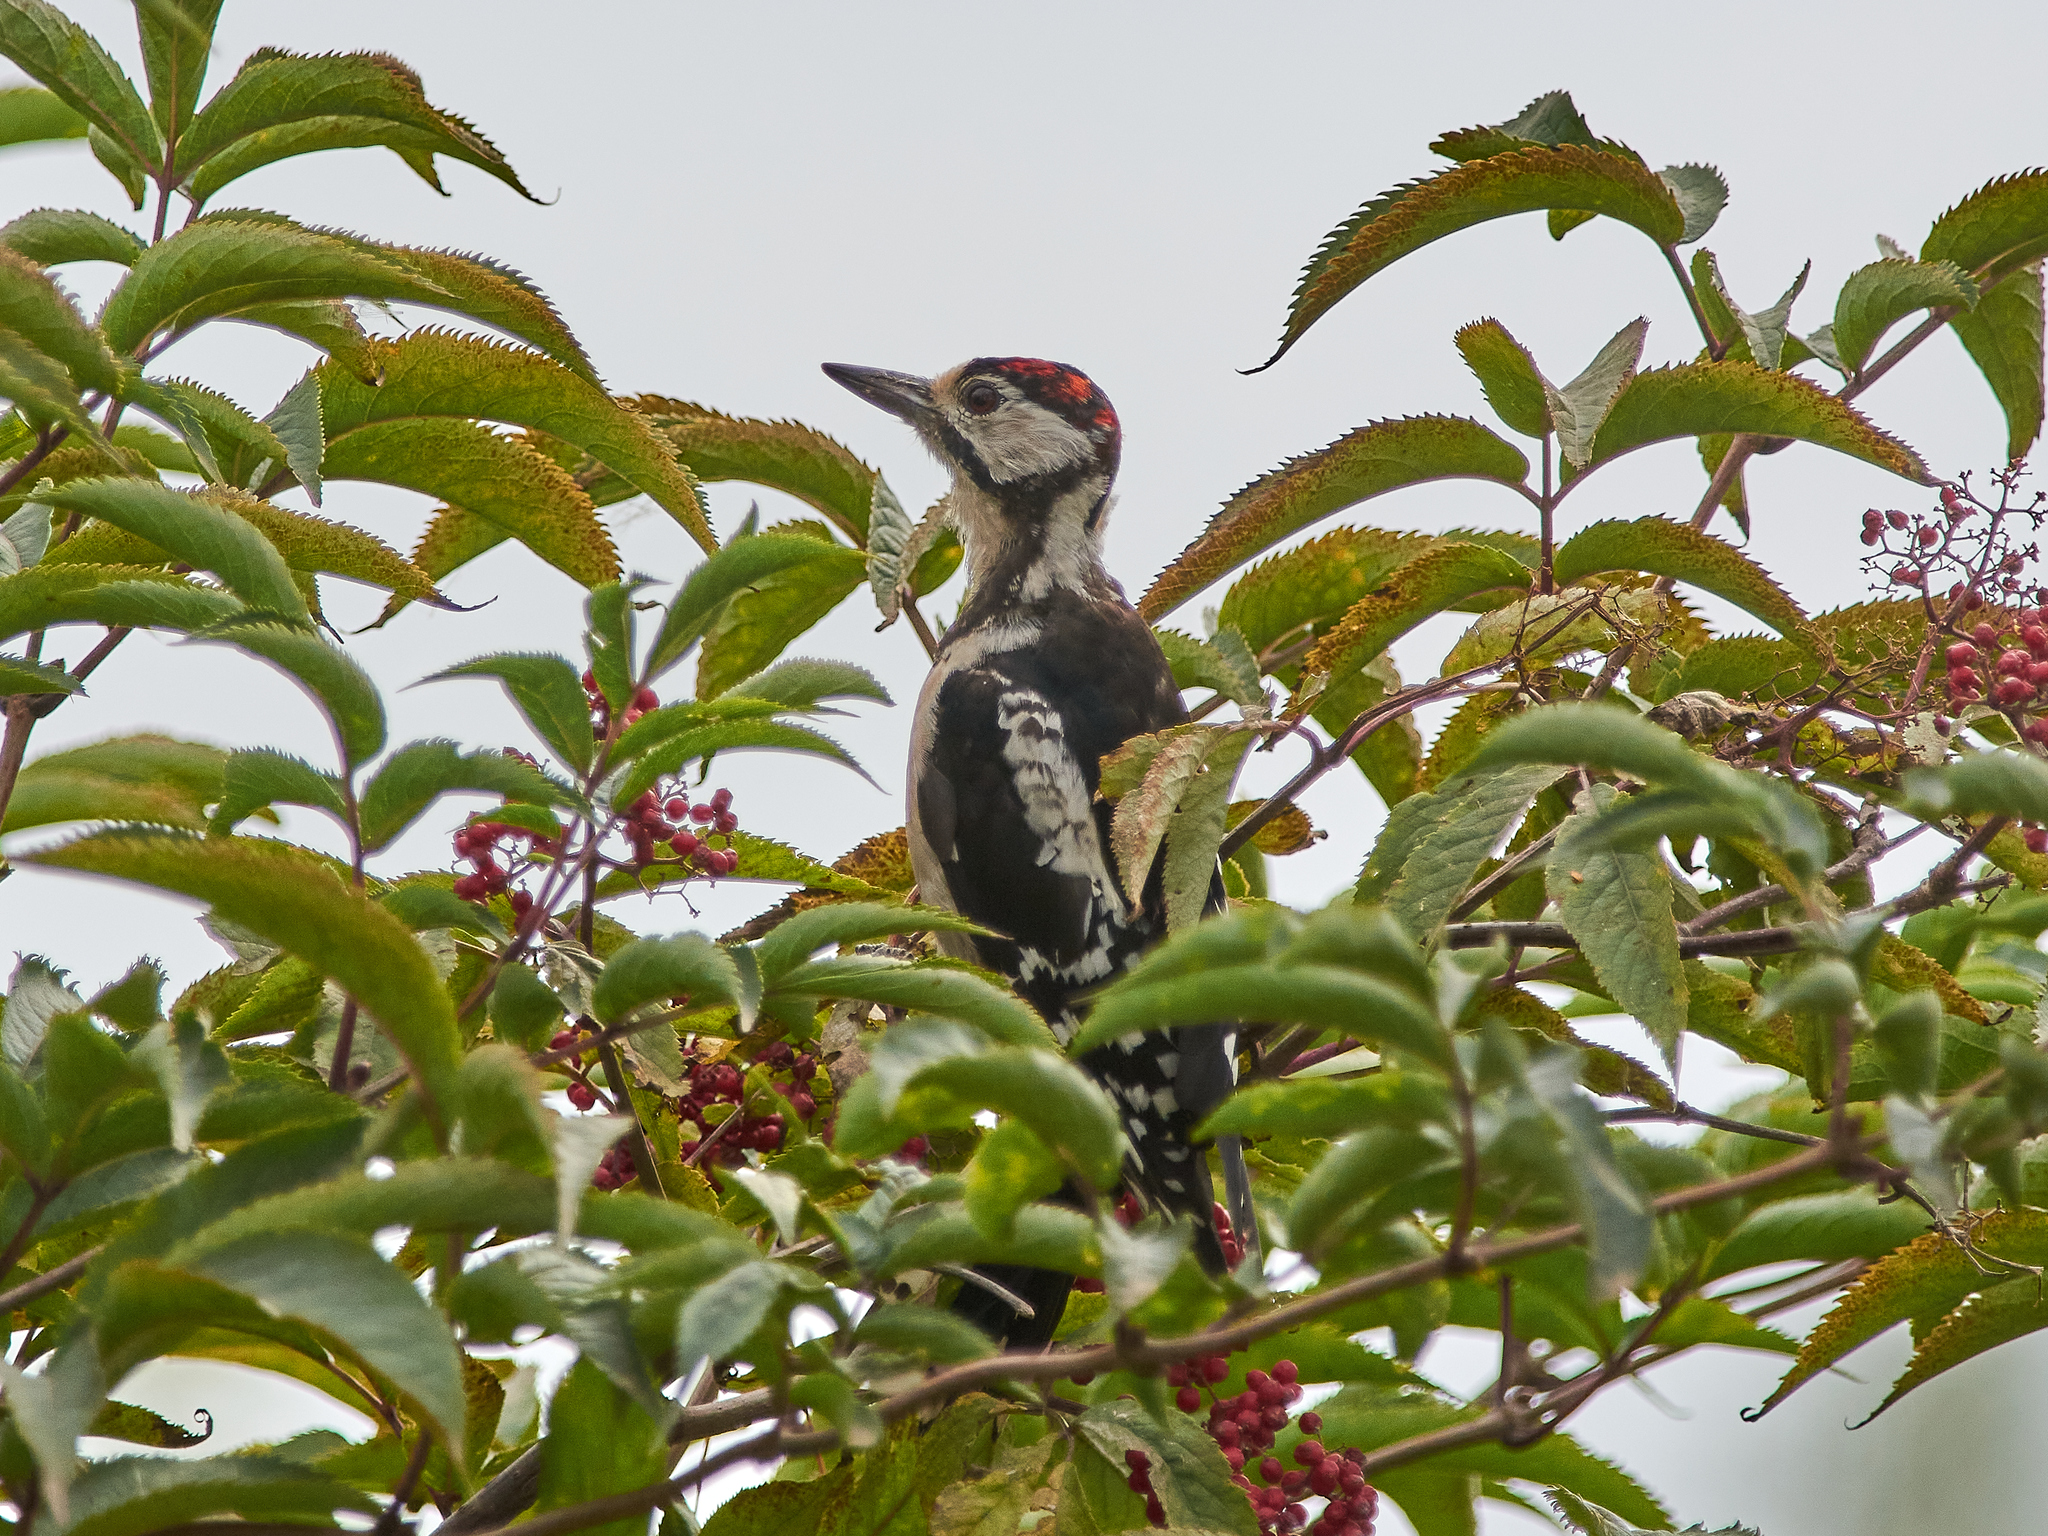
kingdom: Animalia
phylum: Chordata
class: Aves
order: Piciformes
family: Picidae
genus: Dendrocopos
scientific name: Dendrocopos major
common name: Great spotted woodpecker
